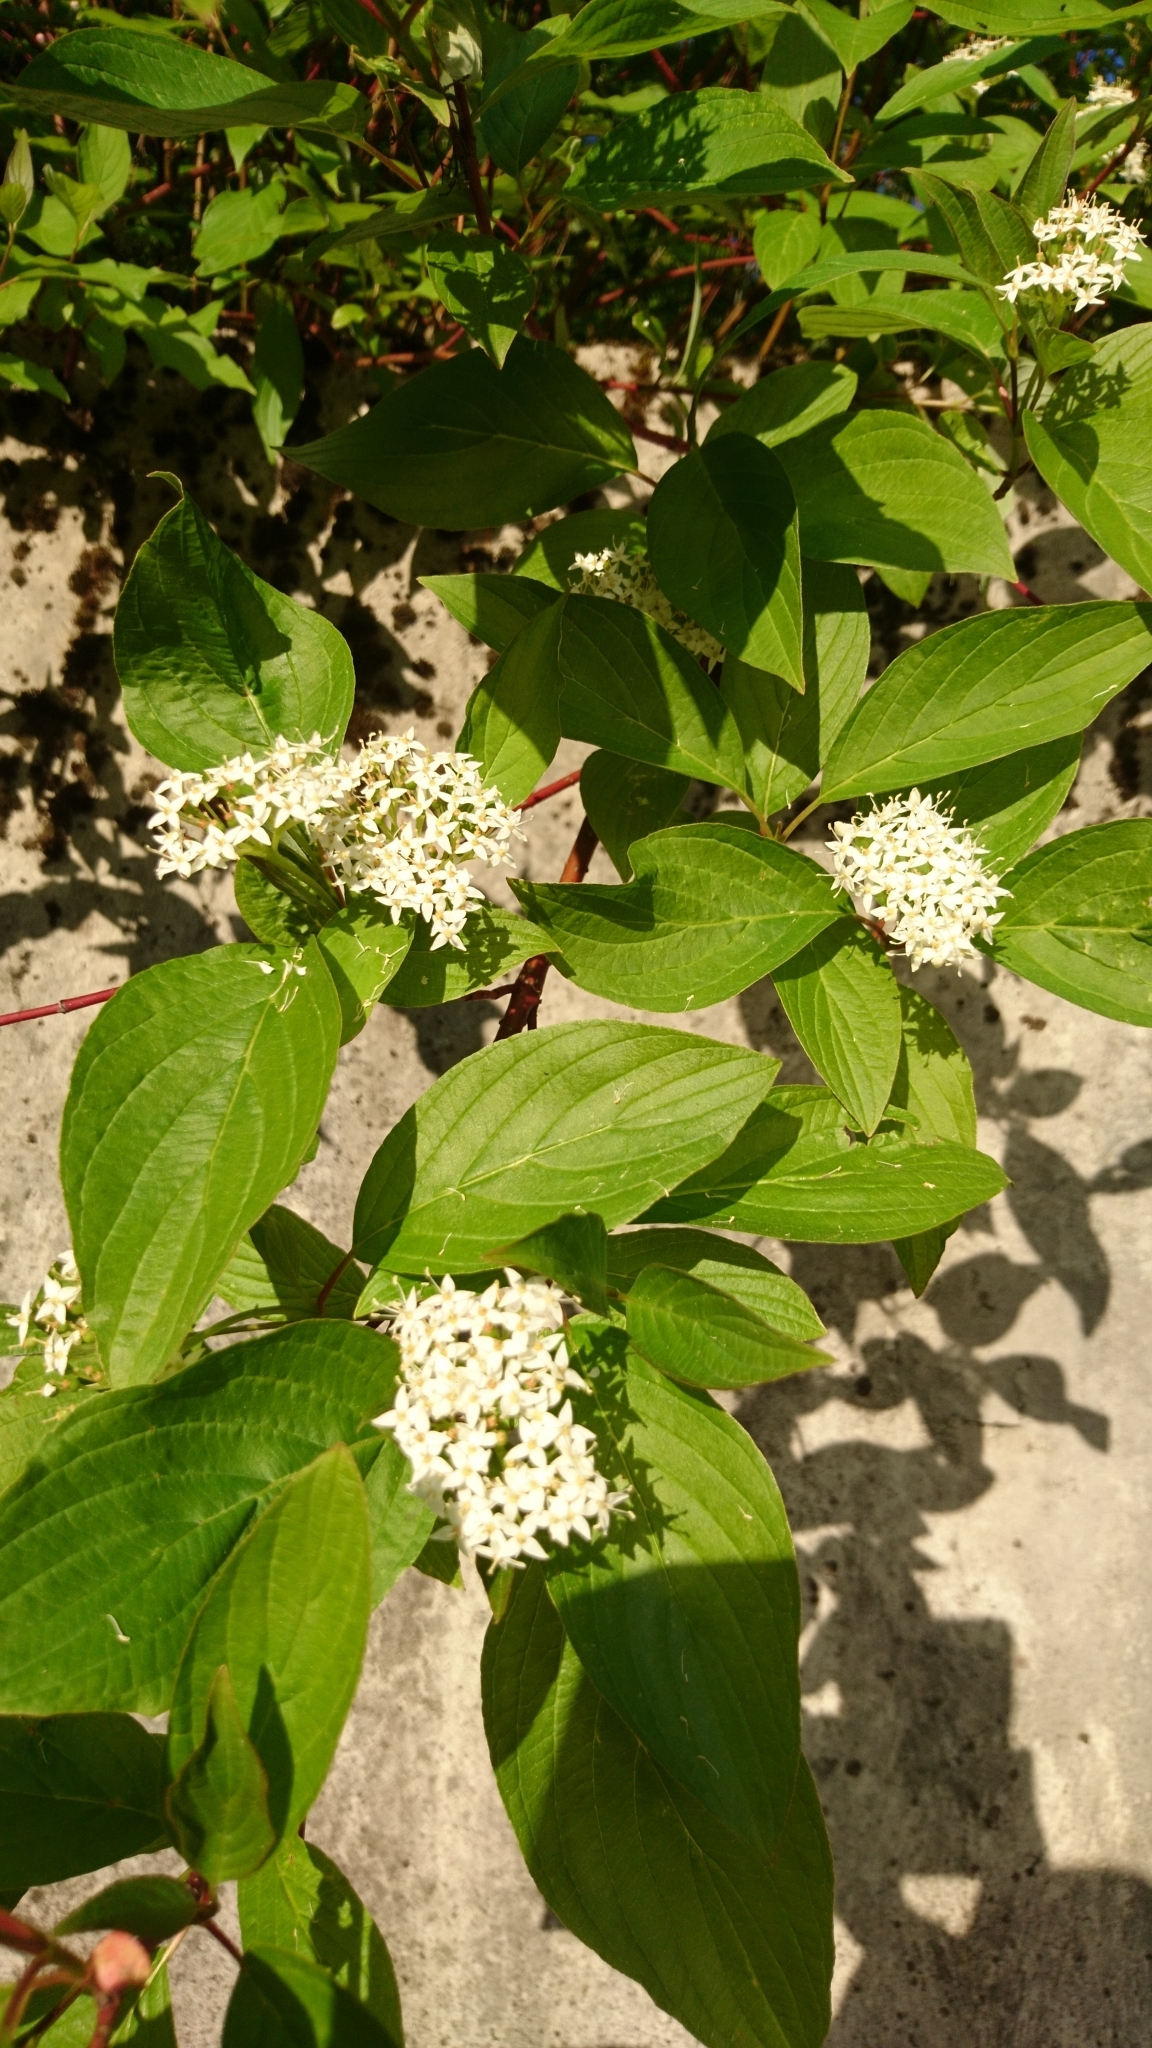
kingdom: Plantae
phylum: Tracheophyta
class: Magnoliopsida
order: Cornales
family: Cornaceae
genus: Cornus
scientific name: Cornus sanguinea
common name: Dogwood
